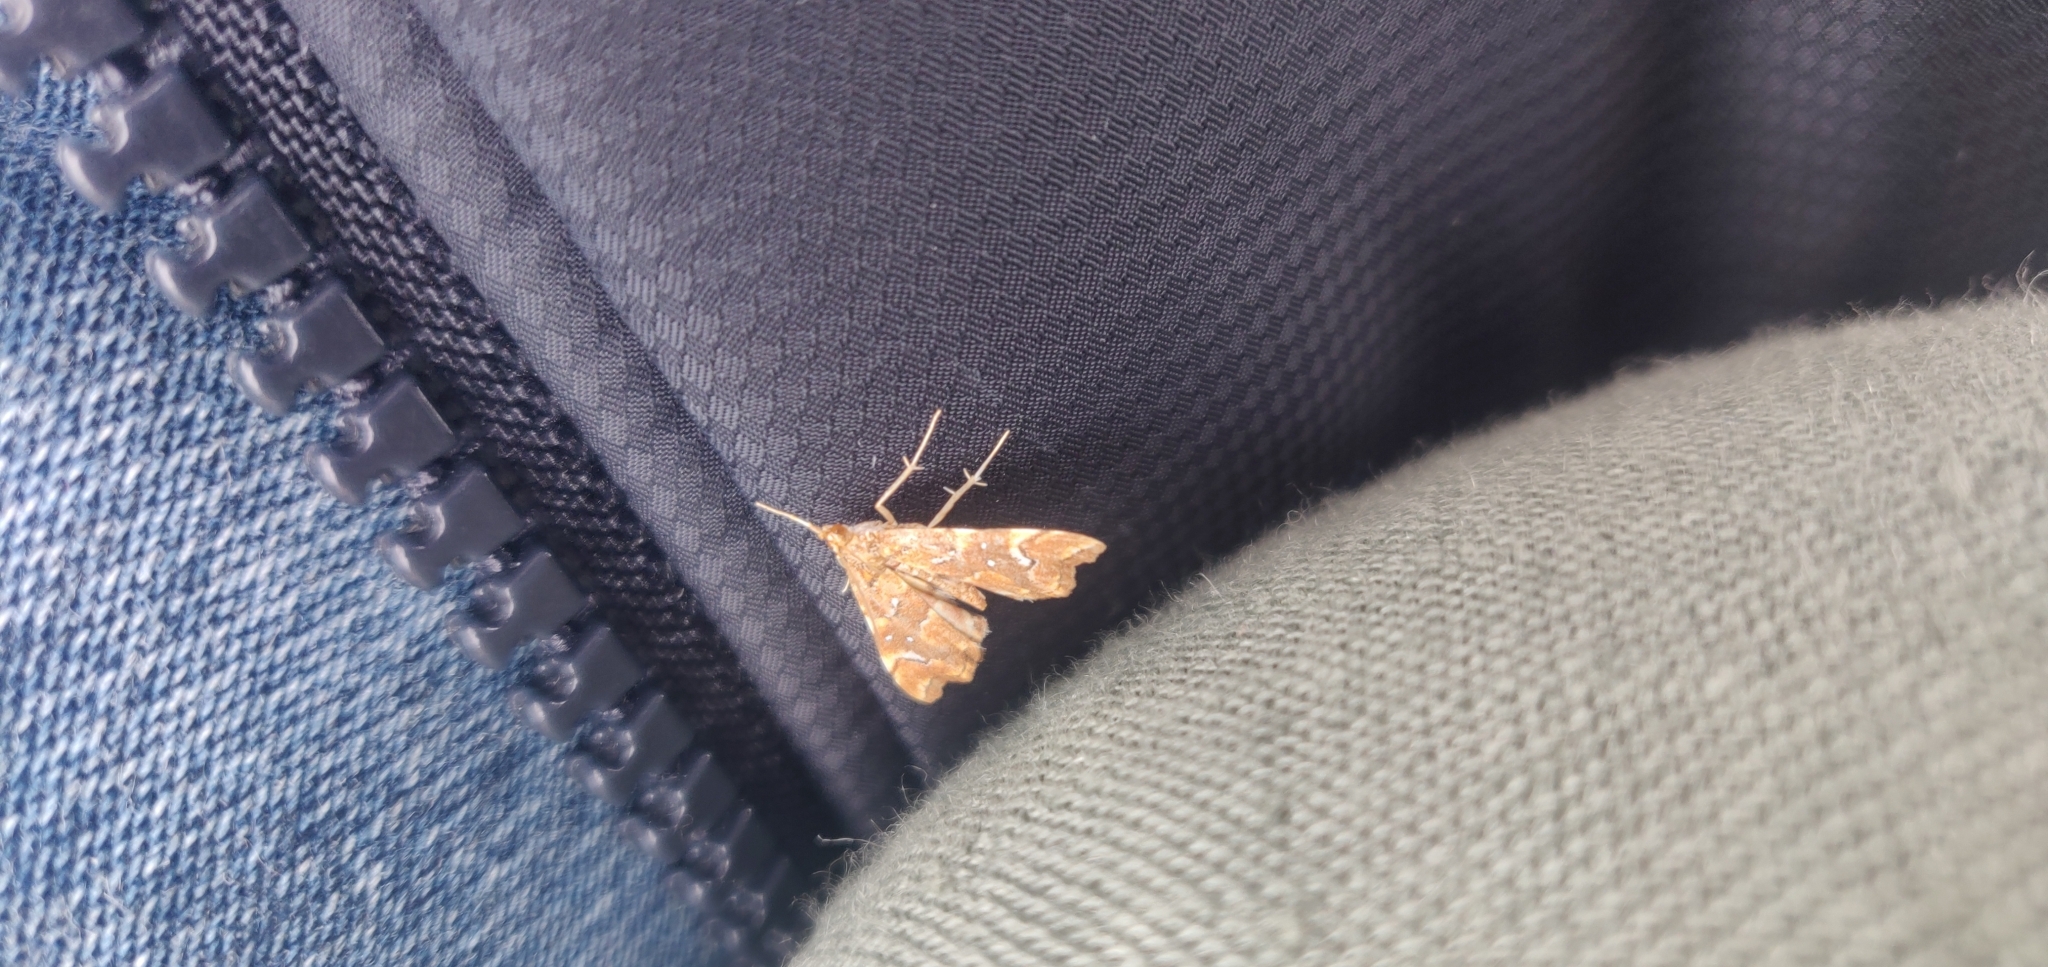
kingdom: Animalia
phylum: Arthropoda
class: Insecta
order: Lepidoptera
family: Pyralidae
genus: Musotima
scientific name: Musotima nitidalis
